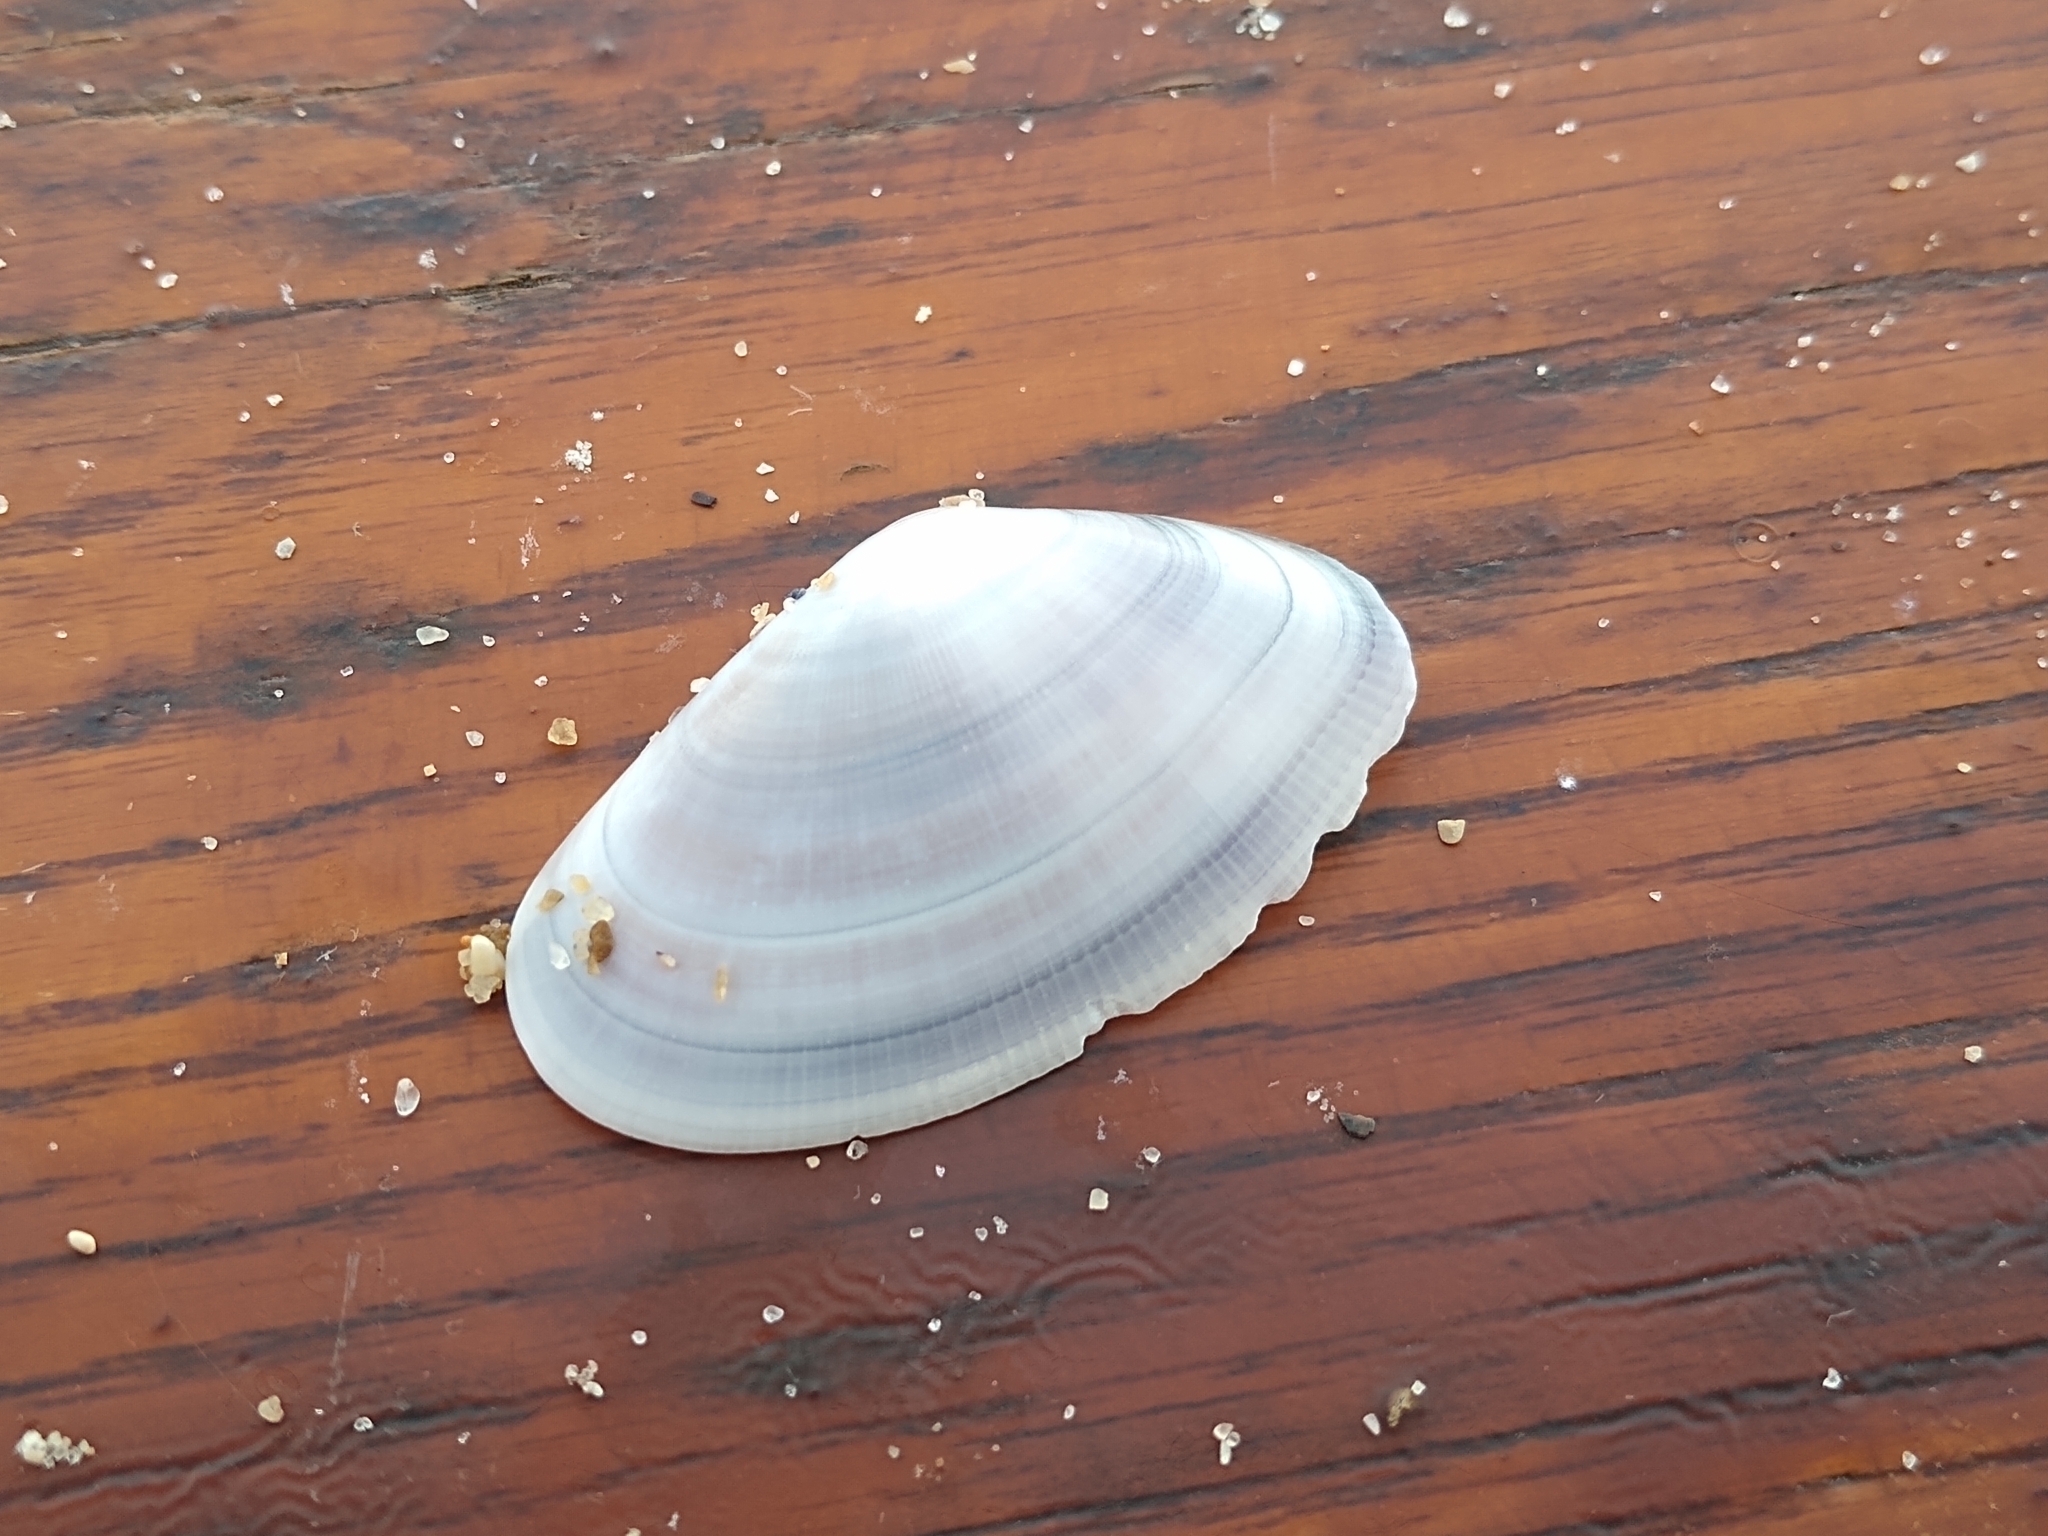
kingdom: Animalia
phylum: Mollusca
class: Bivalvia
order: Cardiida
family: Donacidae
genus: Donax
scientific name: Donax trunculus
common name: Truncate donax
